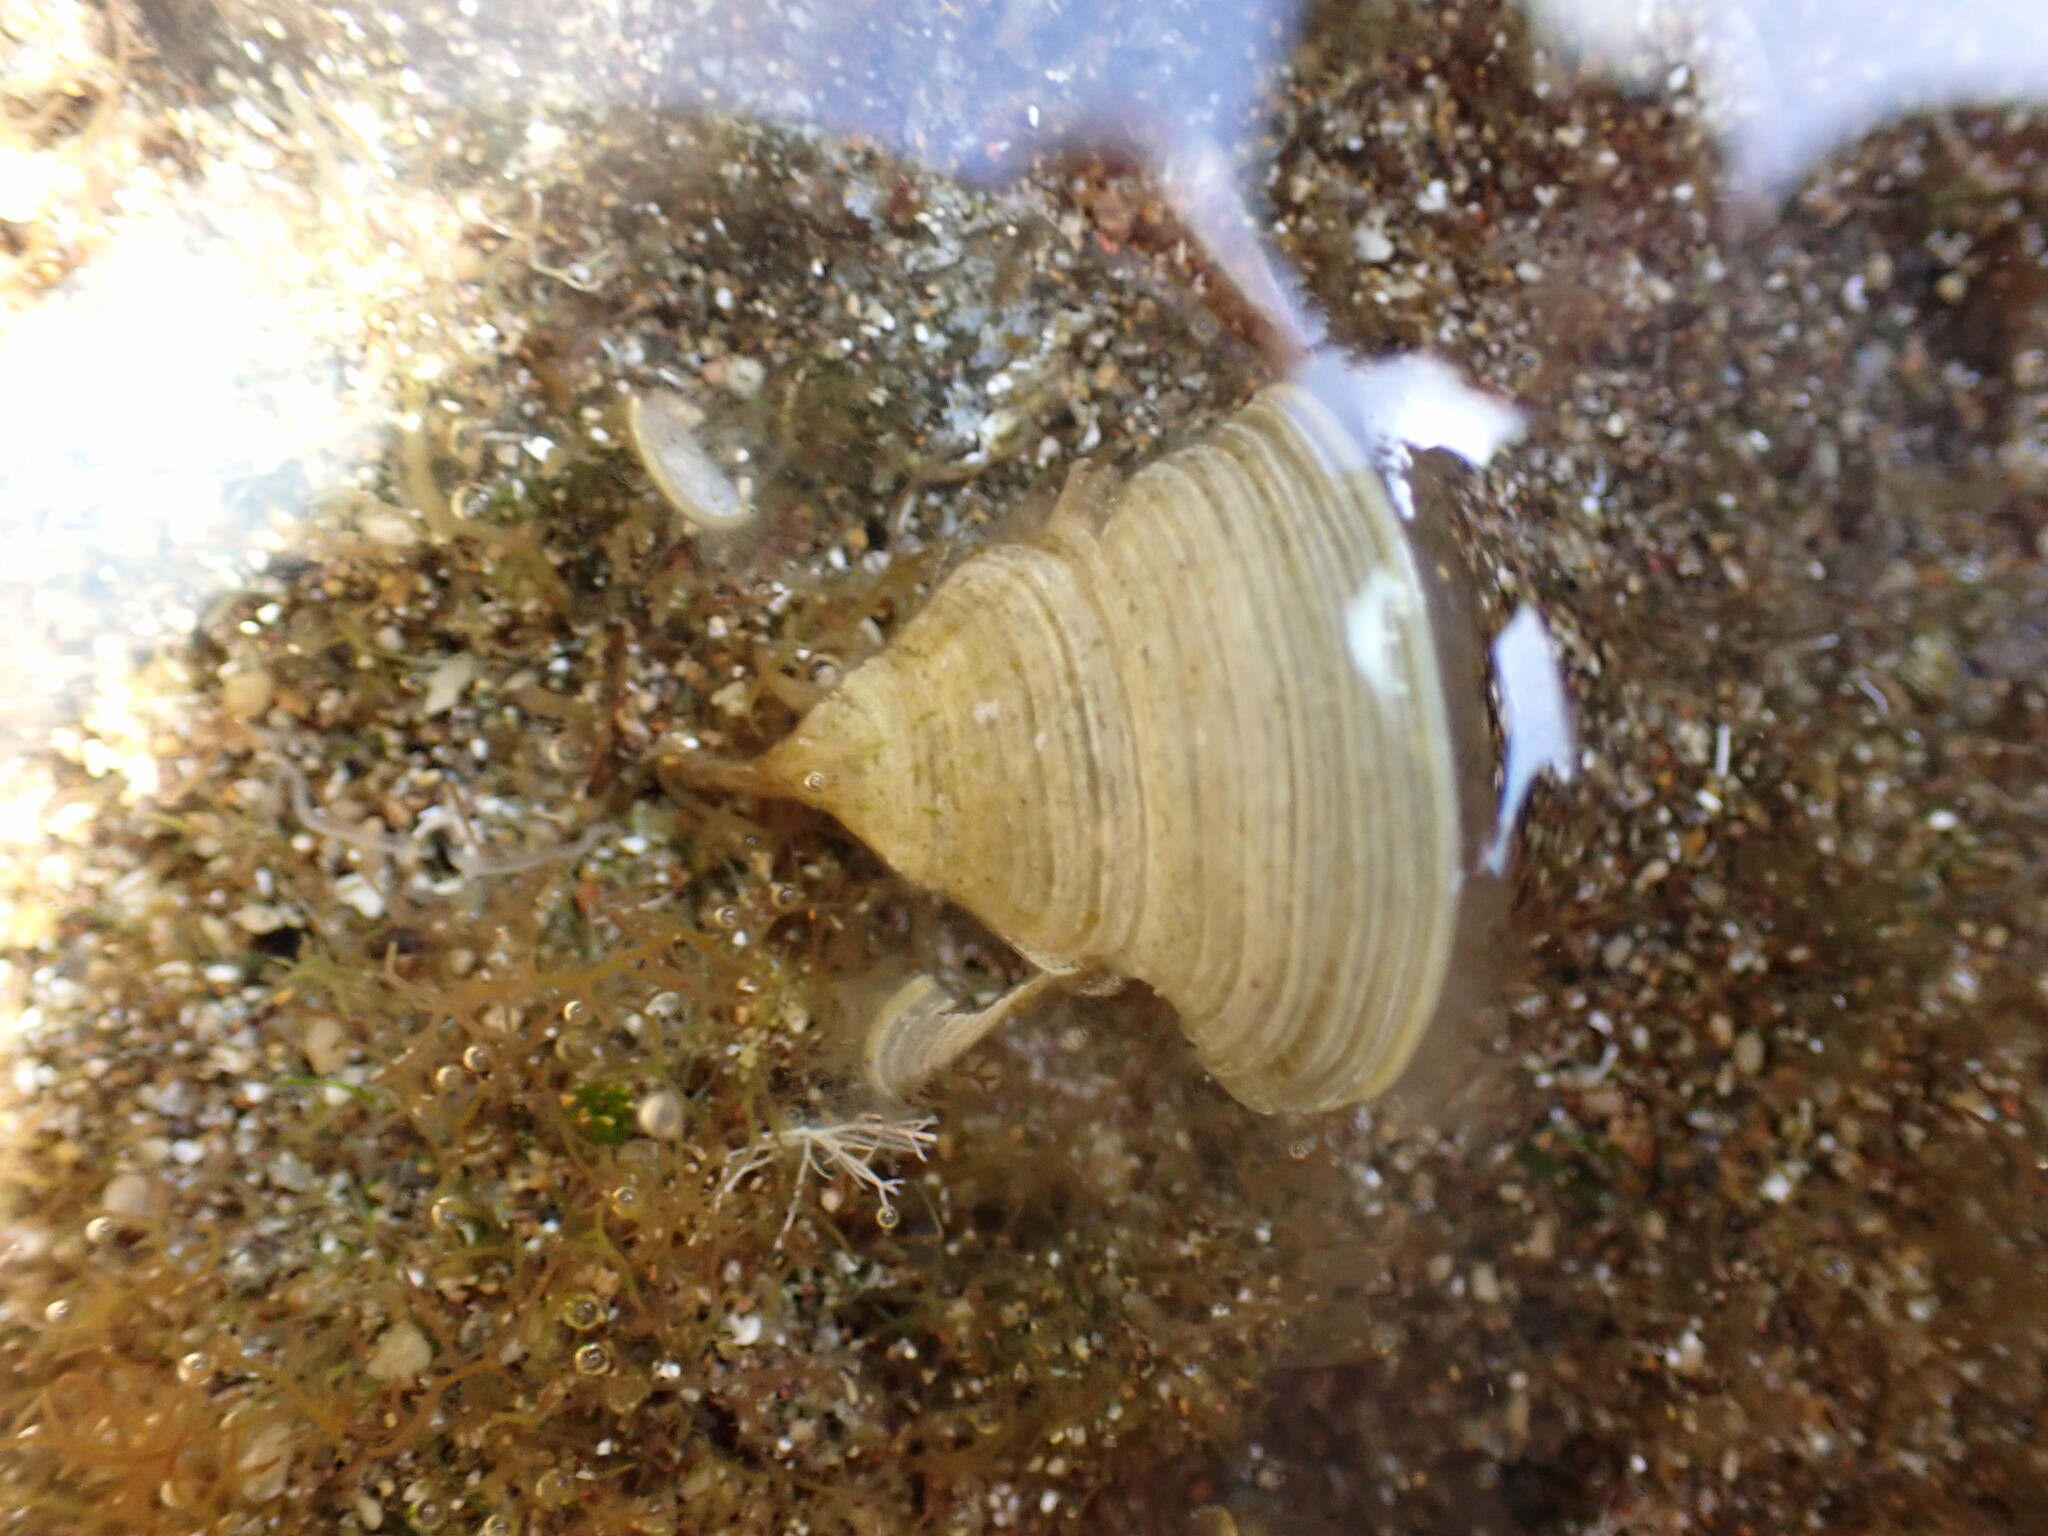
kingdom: Chromista
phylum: Ochrophyta
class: Phaeophyceae
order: Dictyotales
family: Dictyotaceae
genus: Padina
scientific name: Padina pavonica
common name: Turkey feather alga
